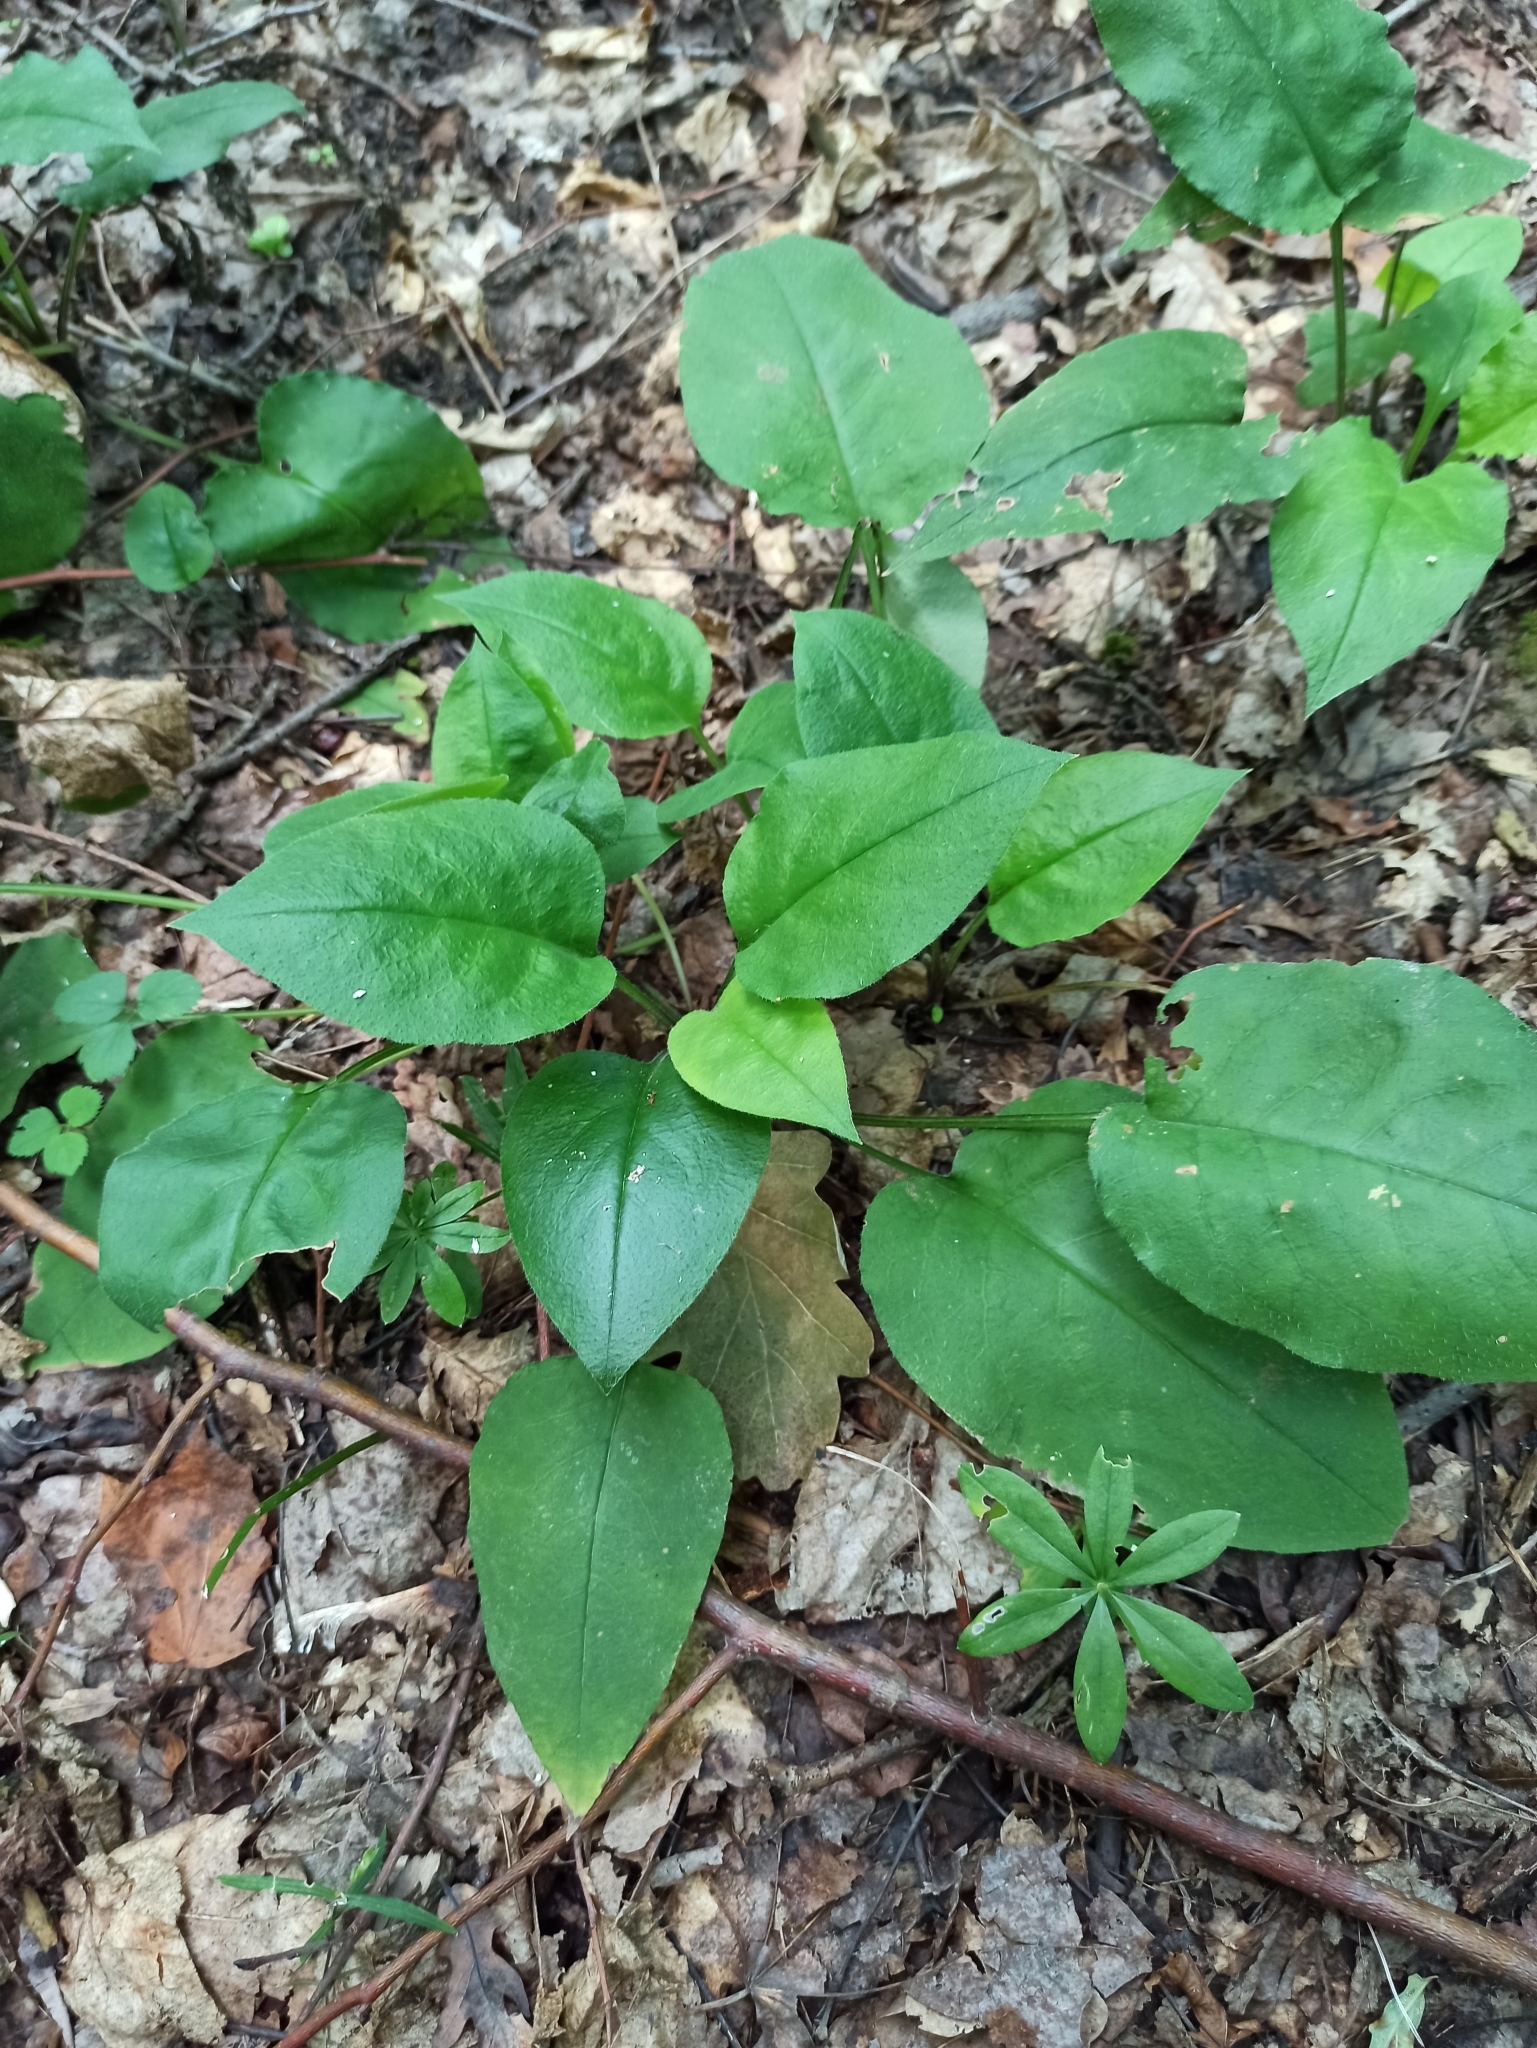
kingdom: Plantae
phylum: Tracheophyta
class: Magnoliopsida
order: Boraginales
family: Boraginaceae
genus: Pulmonaria
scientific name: Pulmonaria obscura
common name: Suffolk lungwort
